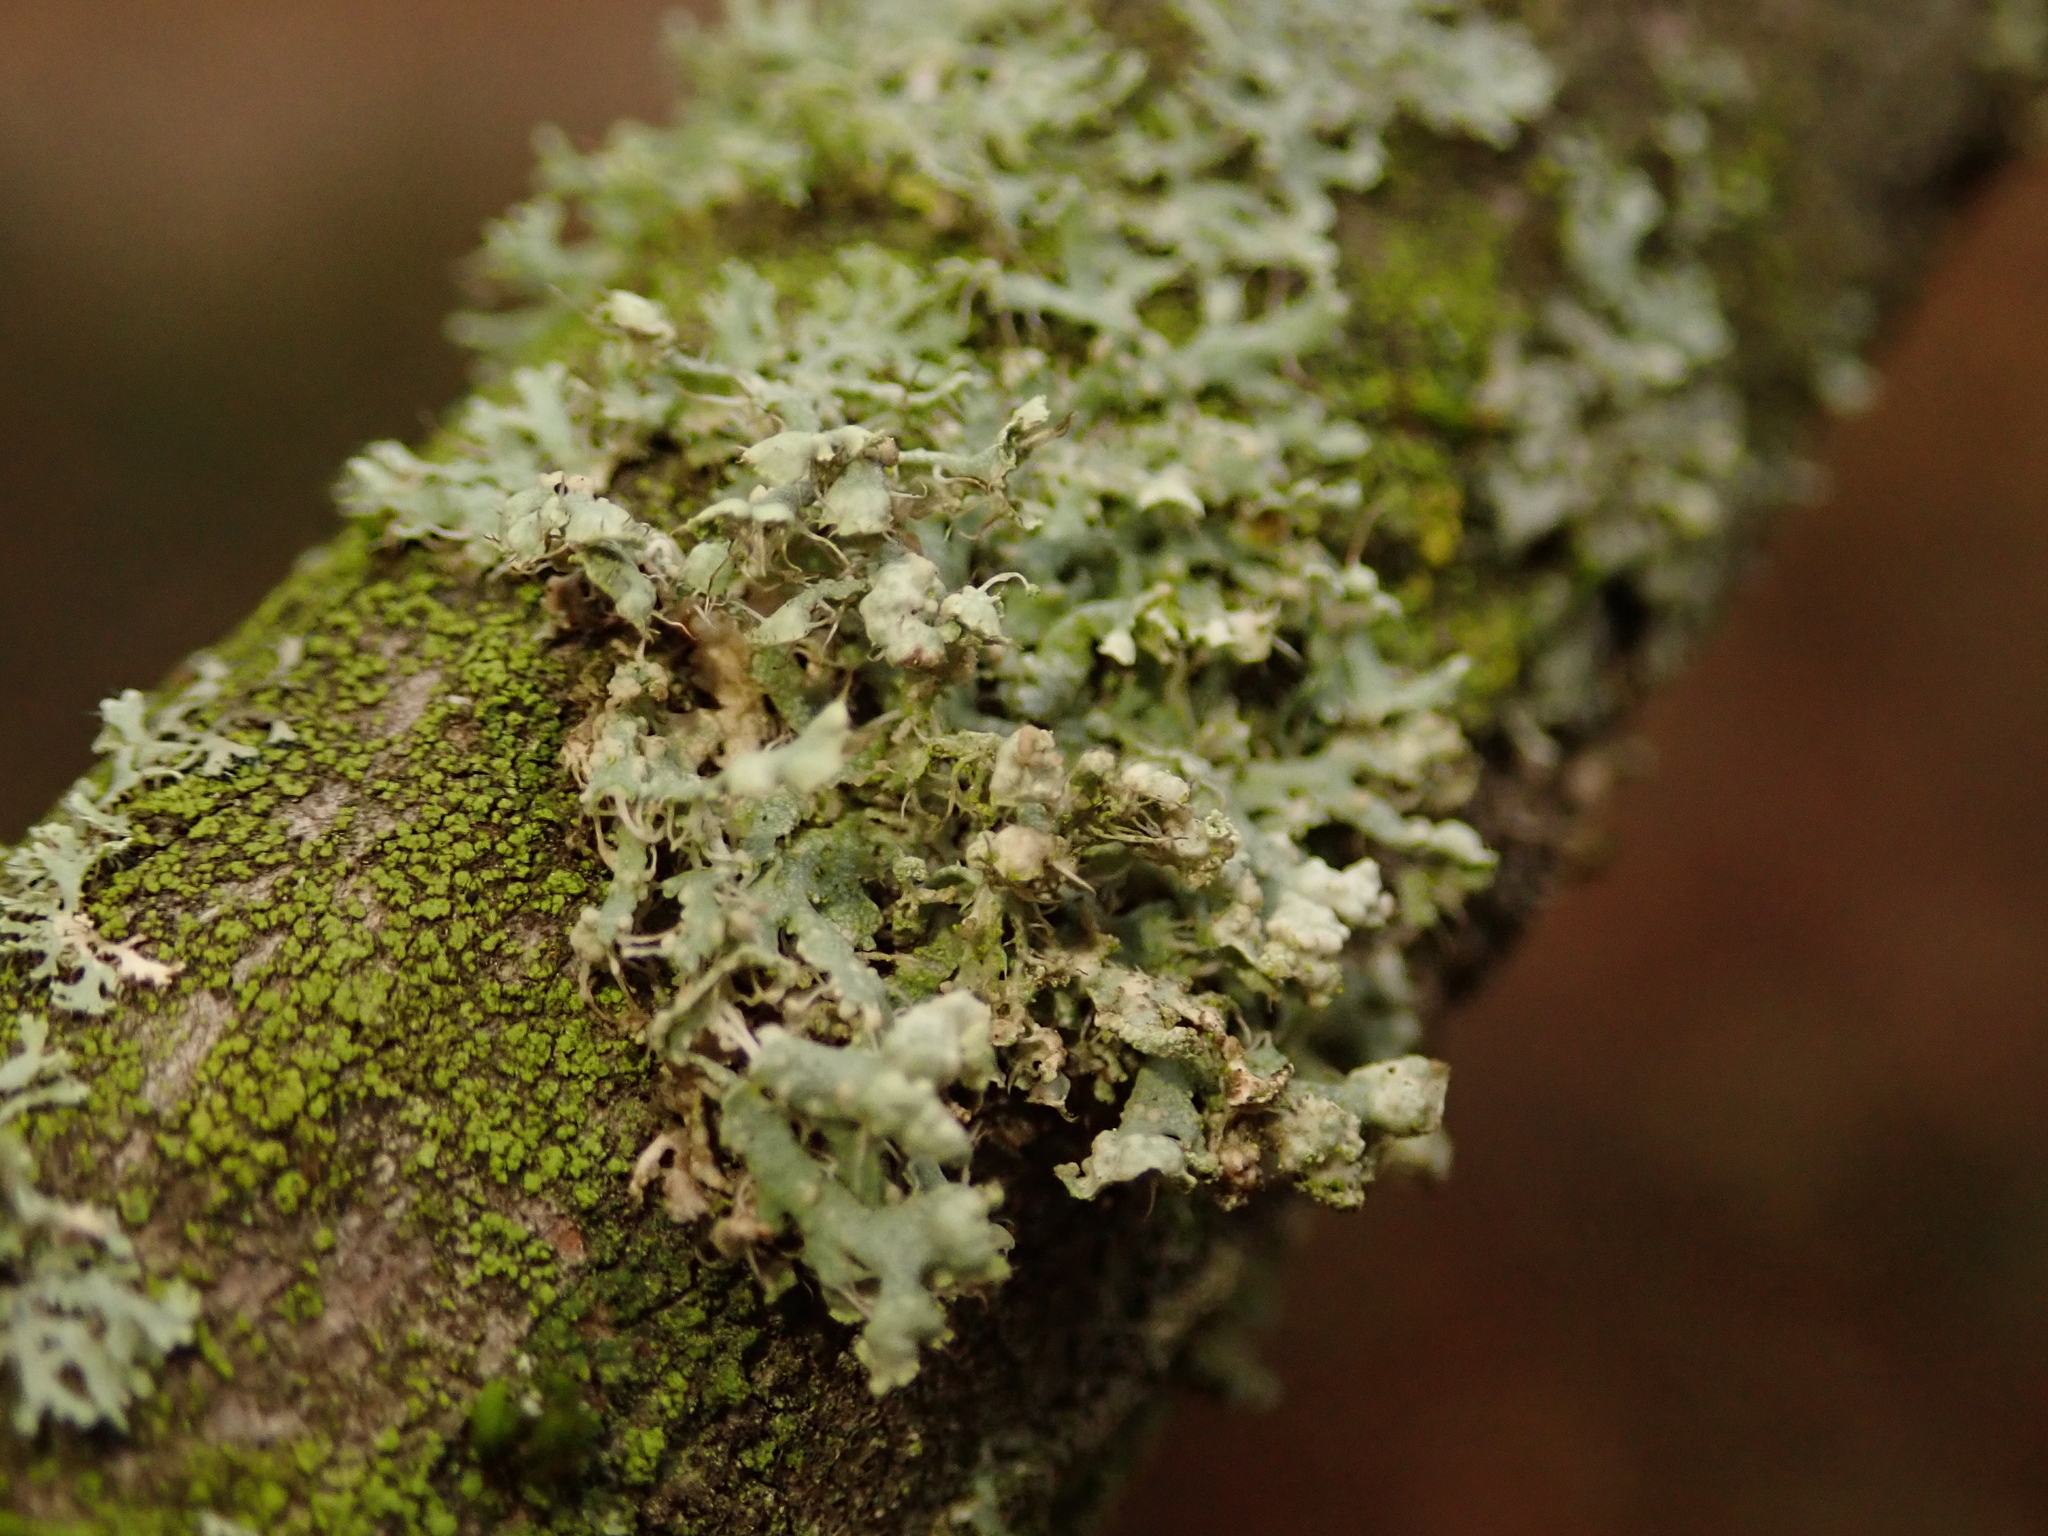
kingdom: Fungi
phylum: Ascomycota
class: Lecanoromycetes
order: Caliciales
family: Physciaceae
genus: Physcia
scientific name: Physcia adscendens
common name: Hooded rosette lichen
